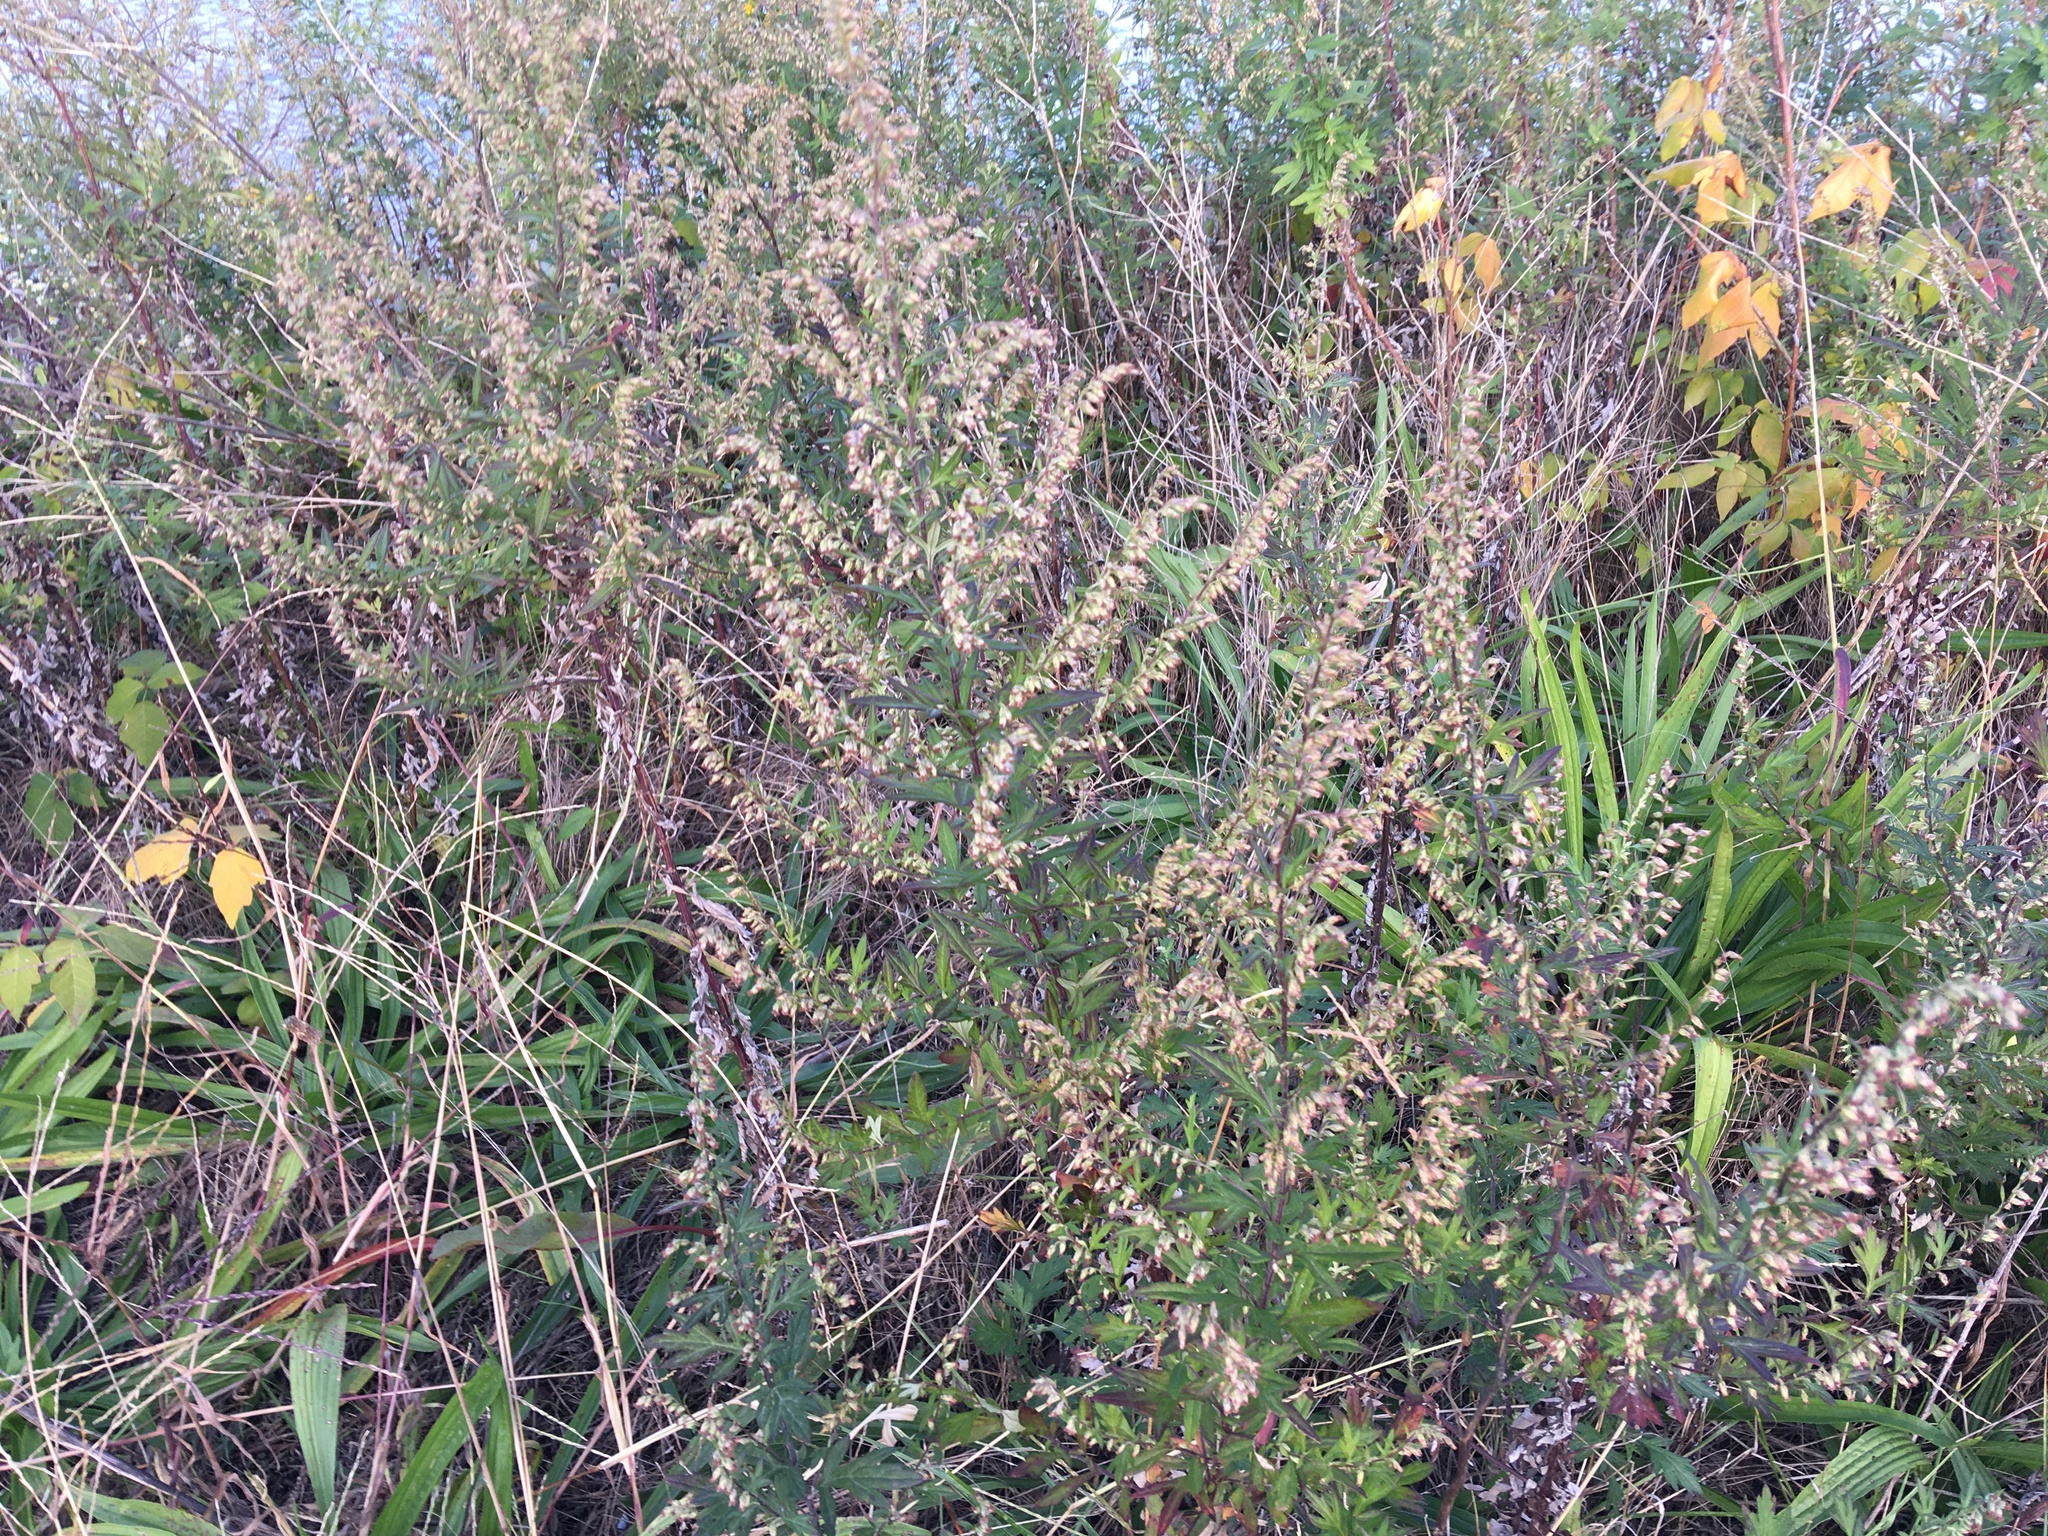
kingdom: Plantae
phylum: Tracheophyta
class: Magnoliopsida
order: Asterales
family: Asteraceae
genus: Artemisia
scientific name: Artemisia vulgaris
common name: Mugwort
